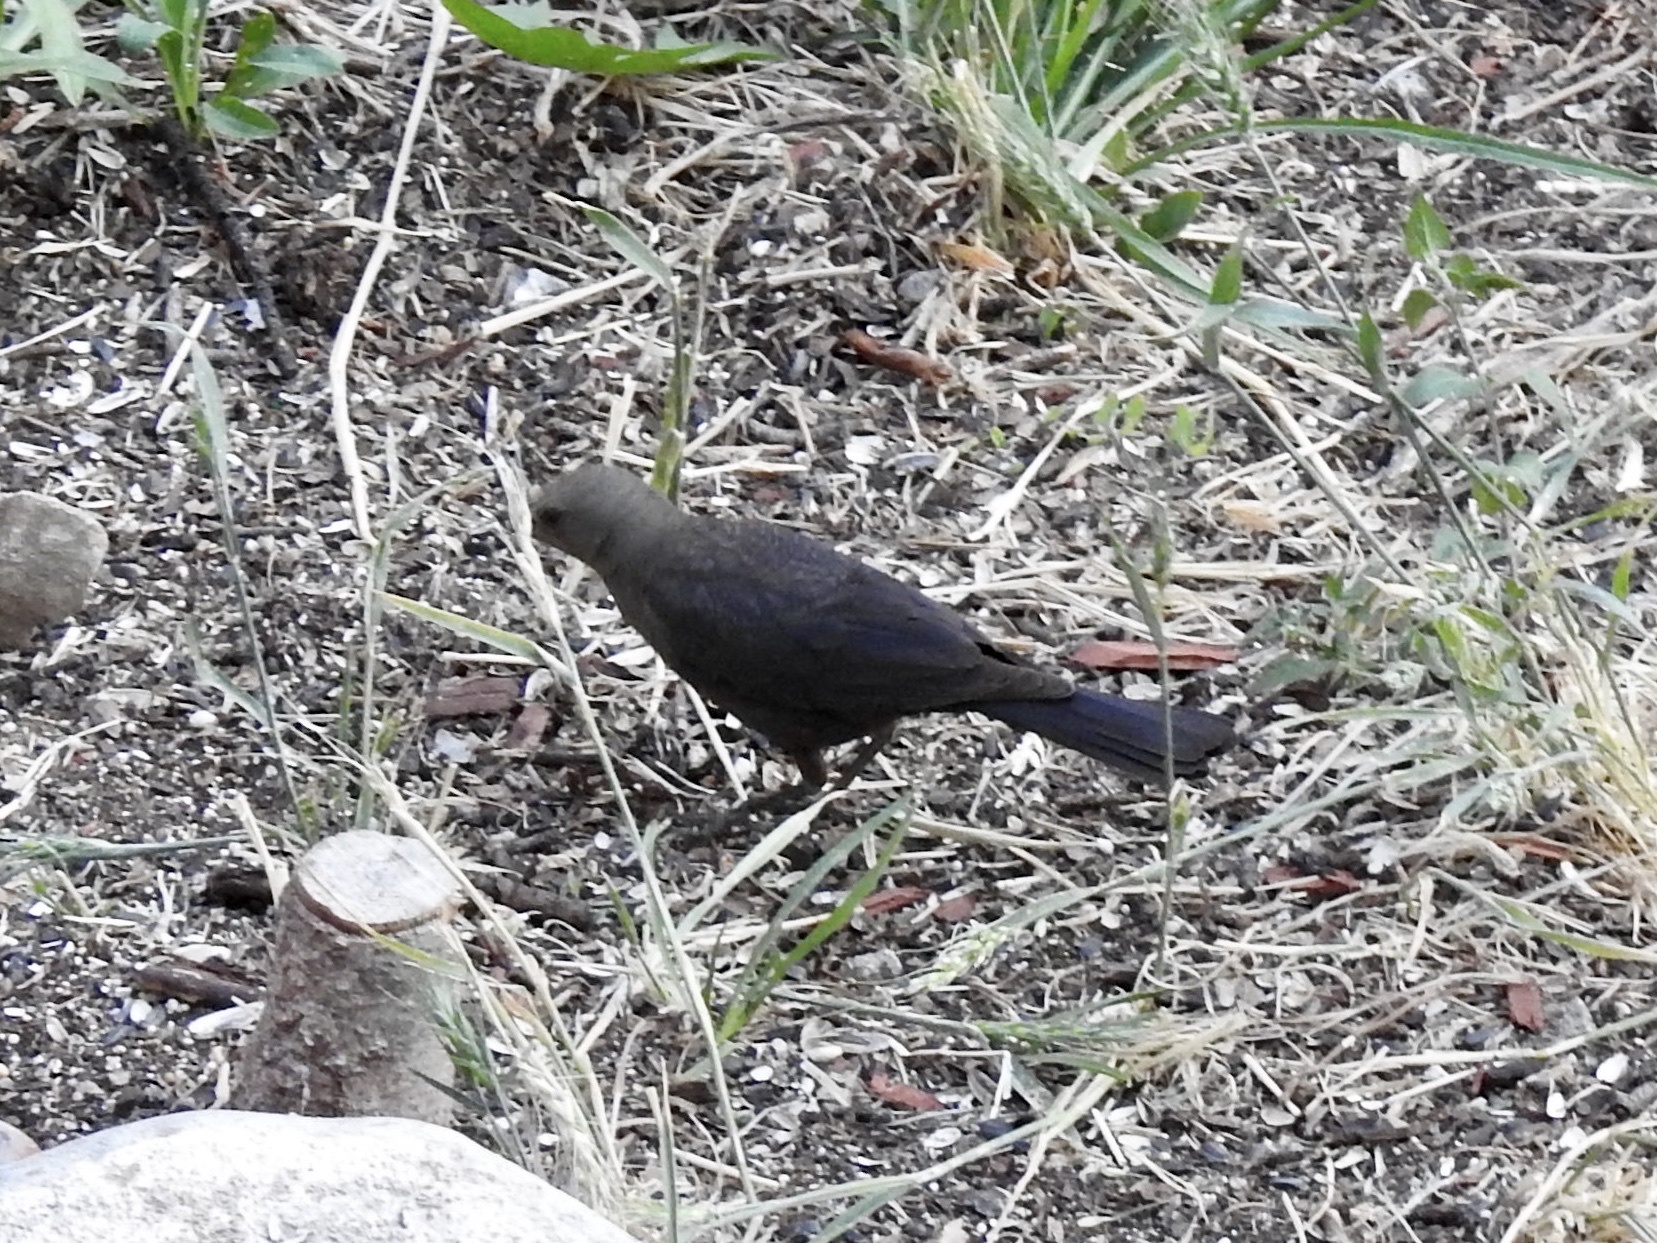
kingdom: Animalia
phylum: Chordata
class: Aves
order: Passeriformes
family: Icteridae
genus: Euphagus
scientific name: Euphagus cyanocephalus
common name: Brewer's blackbird
